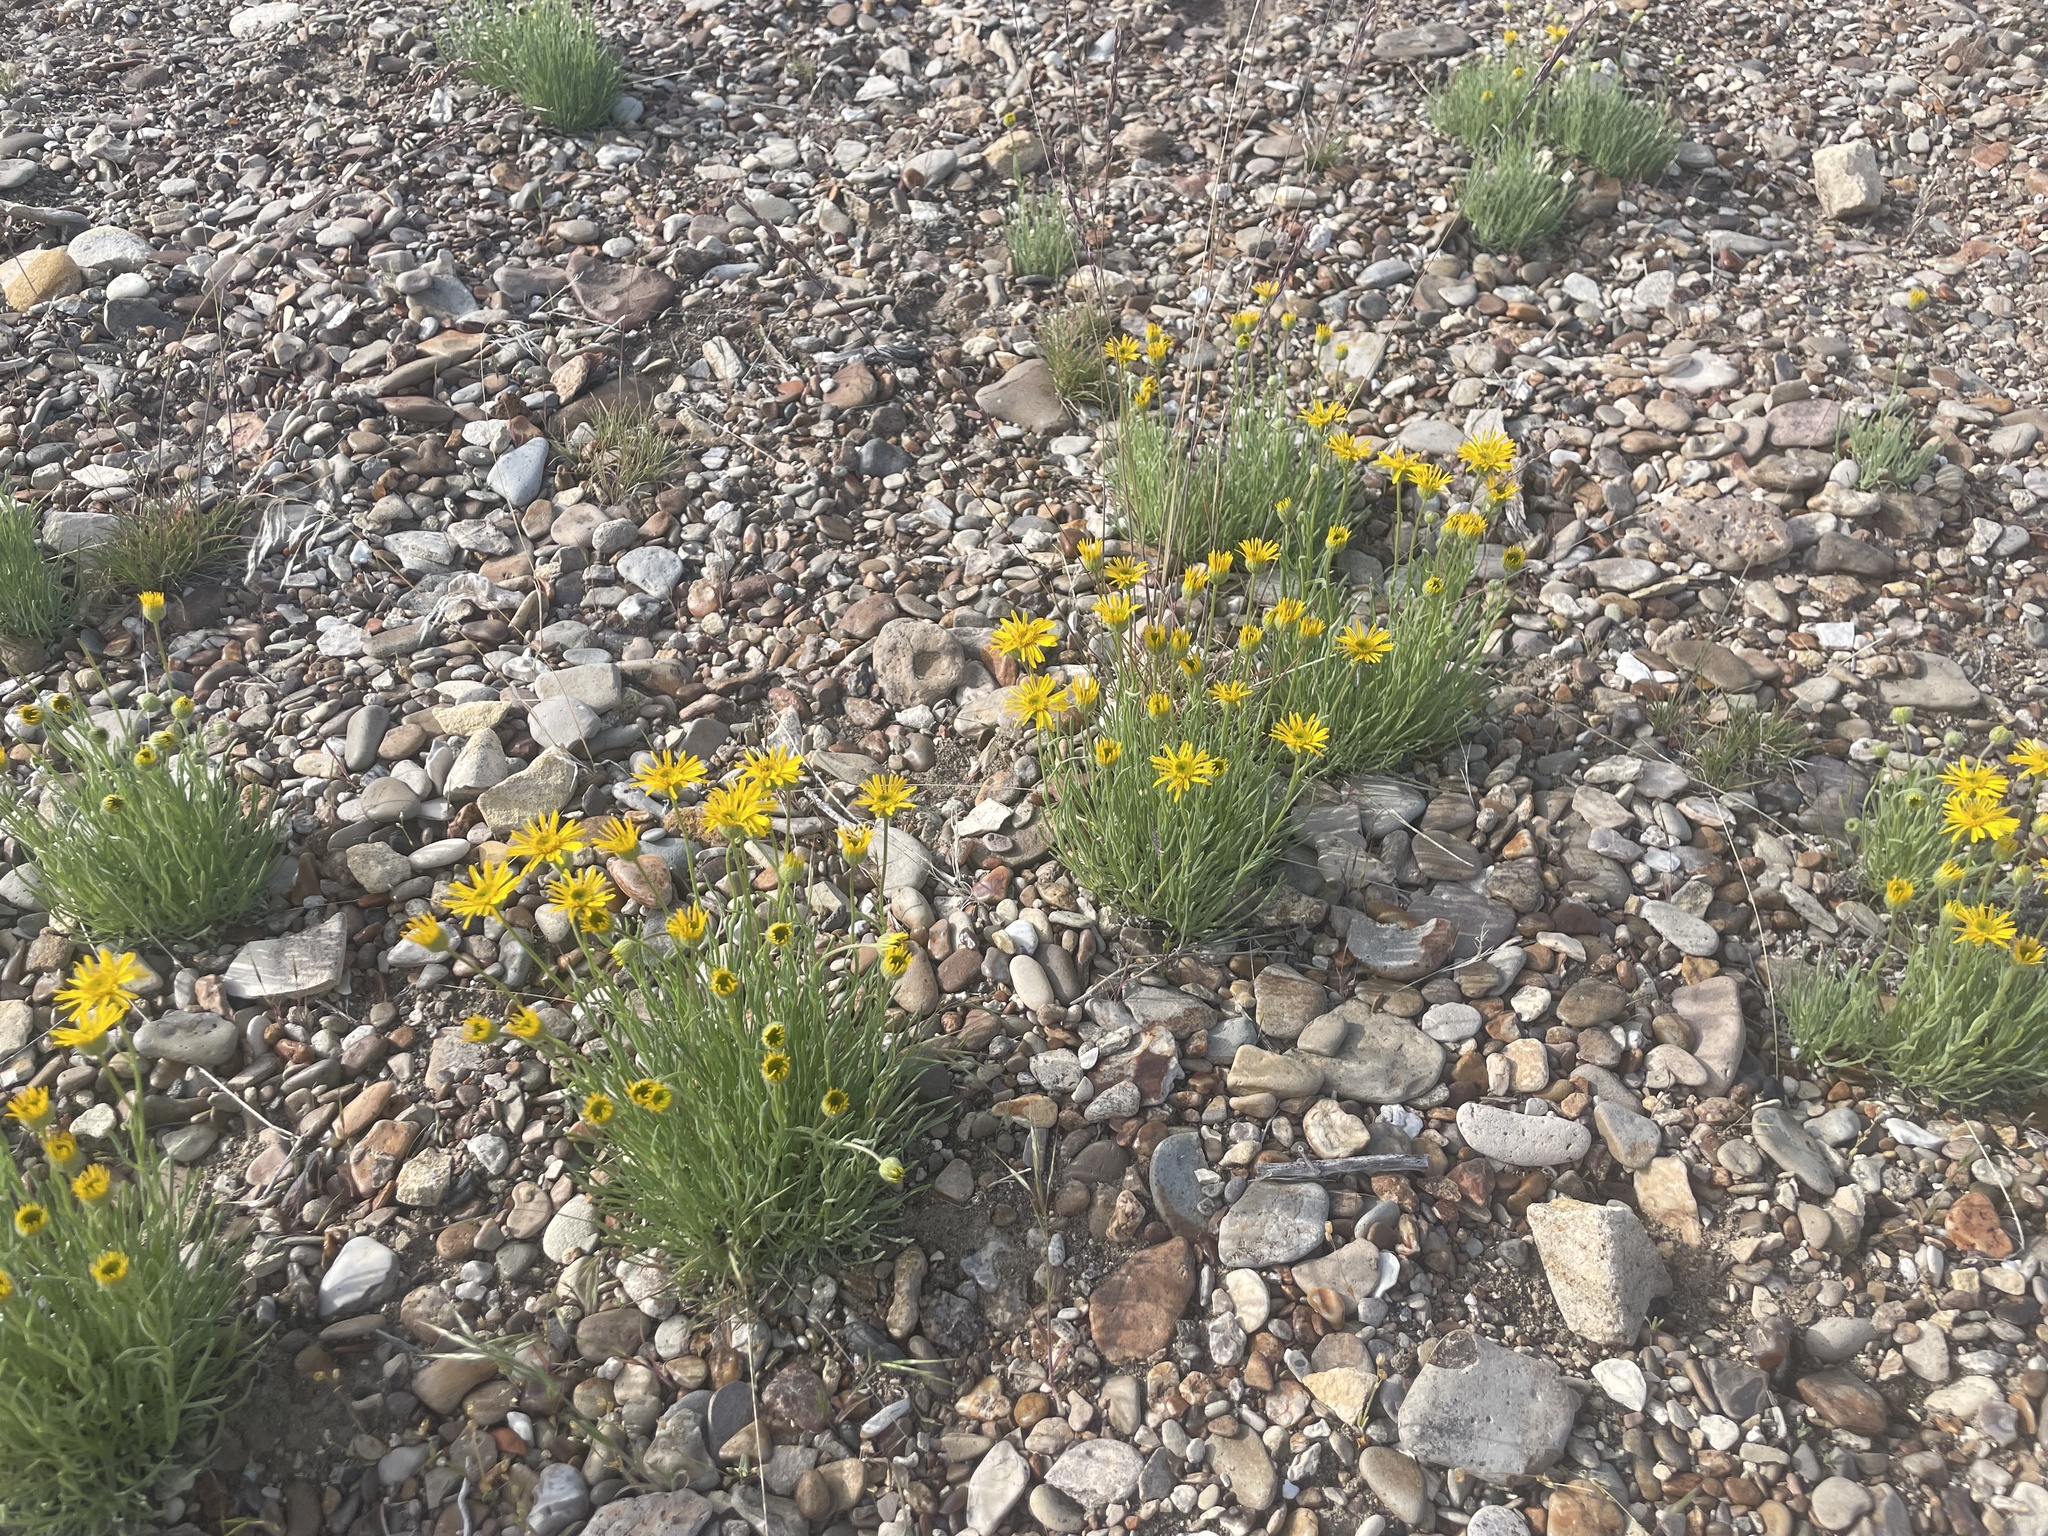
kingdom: Plantae
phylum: Tracheophyta
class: Magnoliopsida
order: Asterales
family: Asteraceae
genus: Erigeron
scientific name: Erigeron linearis
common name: Desert yellow fleabane
